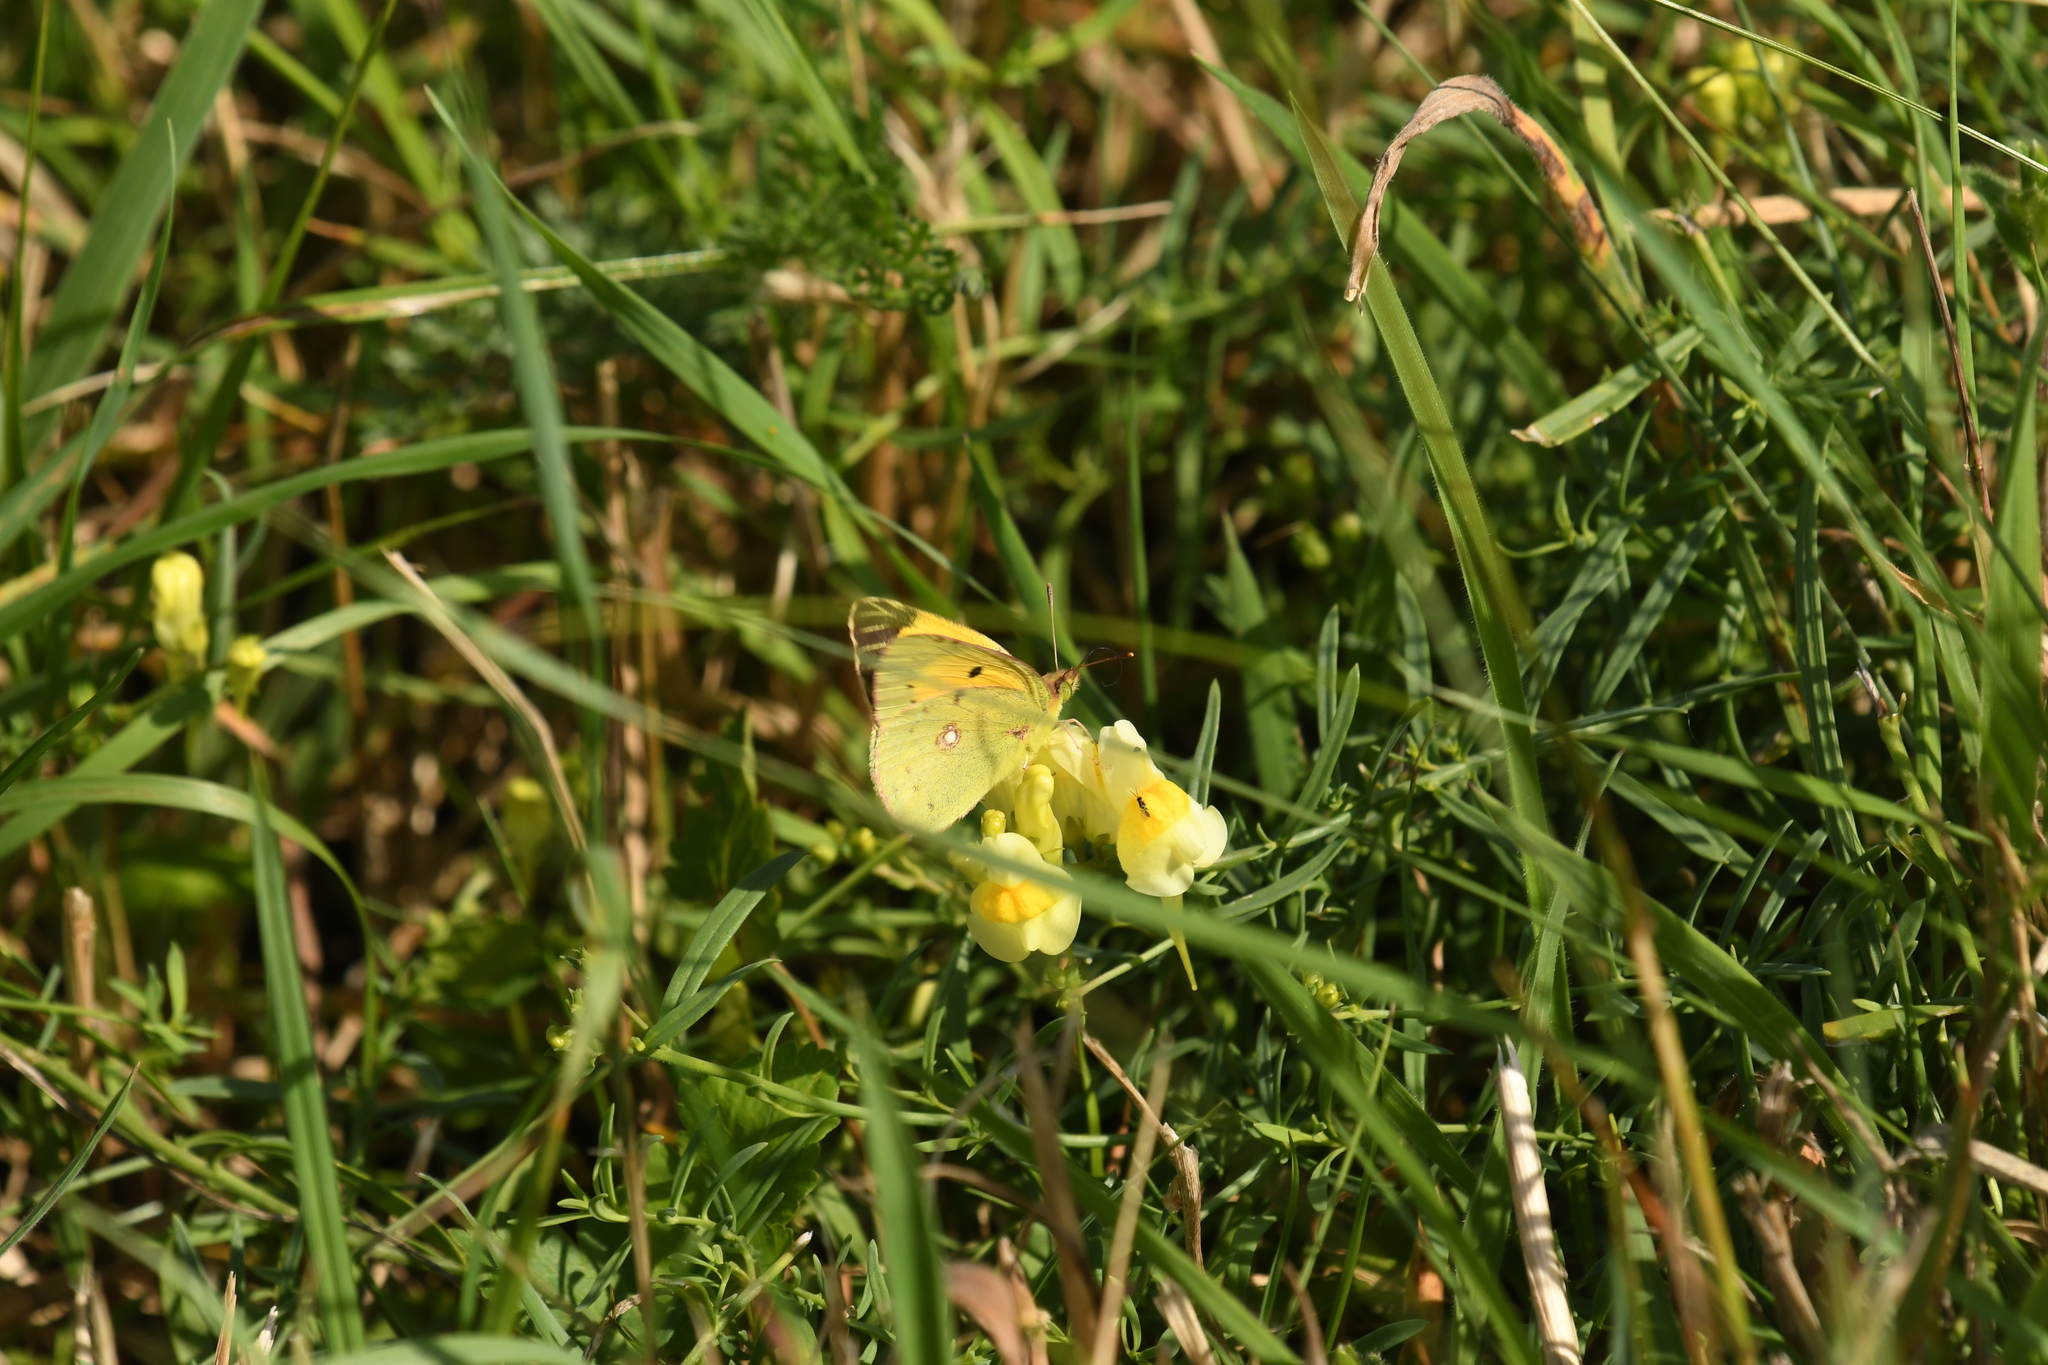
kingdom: Animalia
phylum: Arthropoda
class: Insecta
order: Lepidoptera
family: Pieridae
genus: Colias
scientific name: Colias croceus
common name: Clouded yellow
